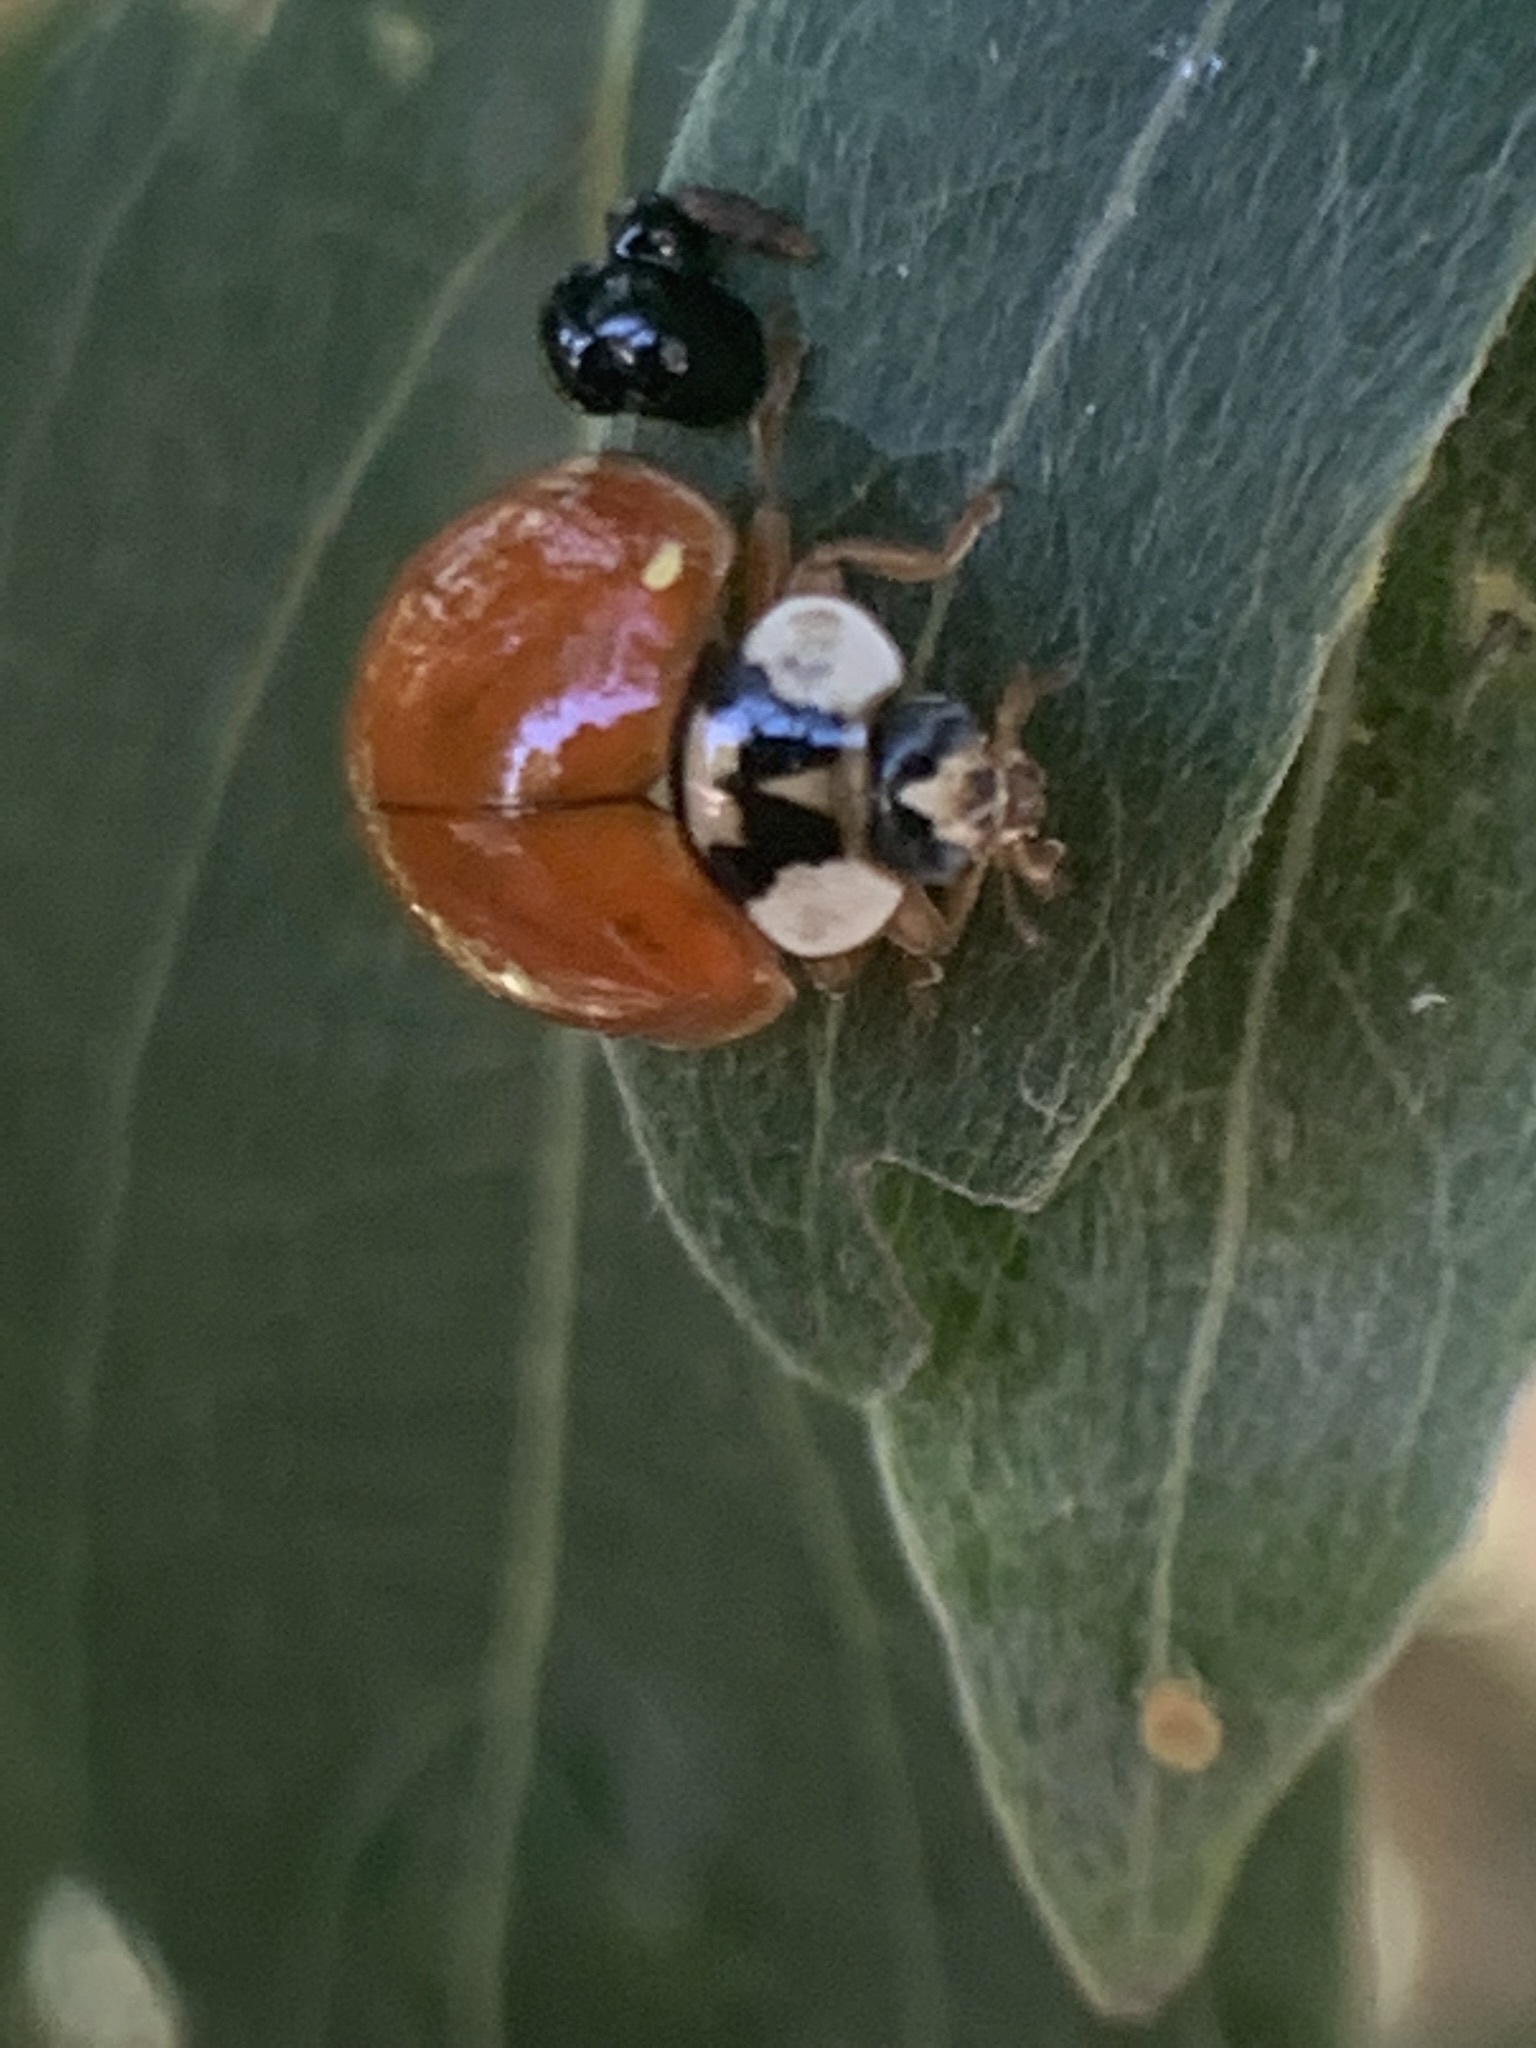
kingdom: Animalia
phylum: Arthropoda
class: Insecta
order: Coleoptera
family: Coccinellidae
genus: Harmonia
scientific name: Harmonia axyridis
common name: Harlequin ladybird
